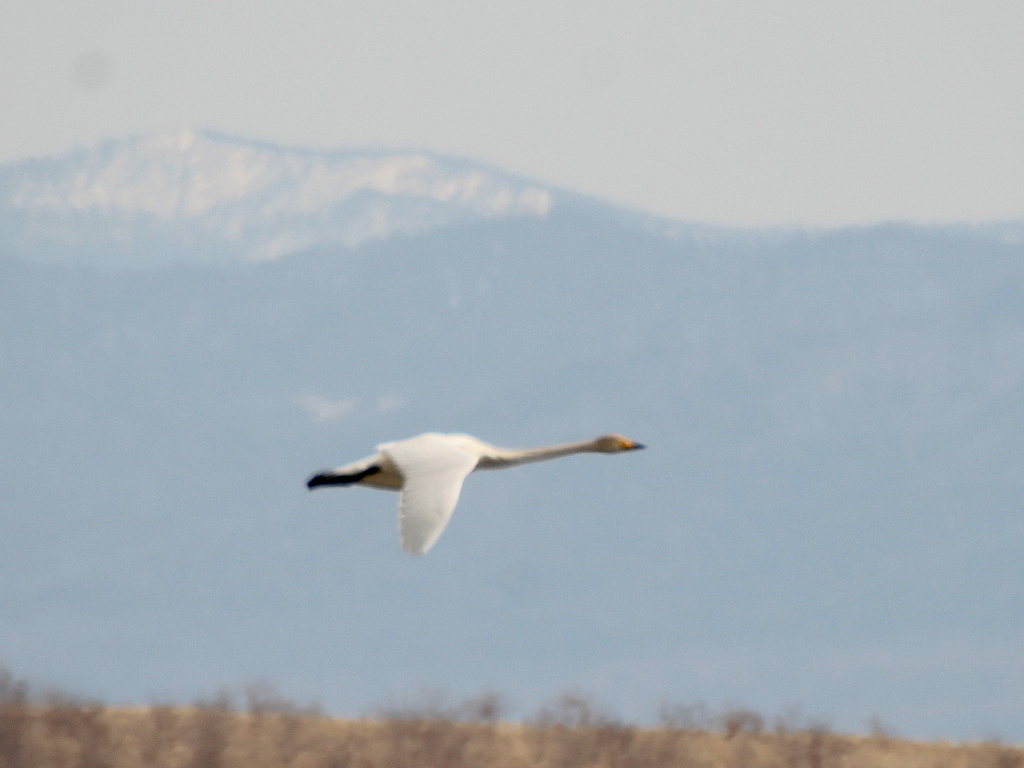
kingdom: Animalia
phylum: Chordata
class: Aves
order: Anseriformes
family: Anatidae
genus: Cygnus
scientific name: Cygnus cygnus
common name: Whooper swan
